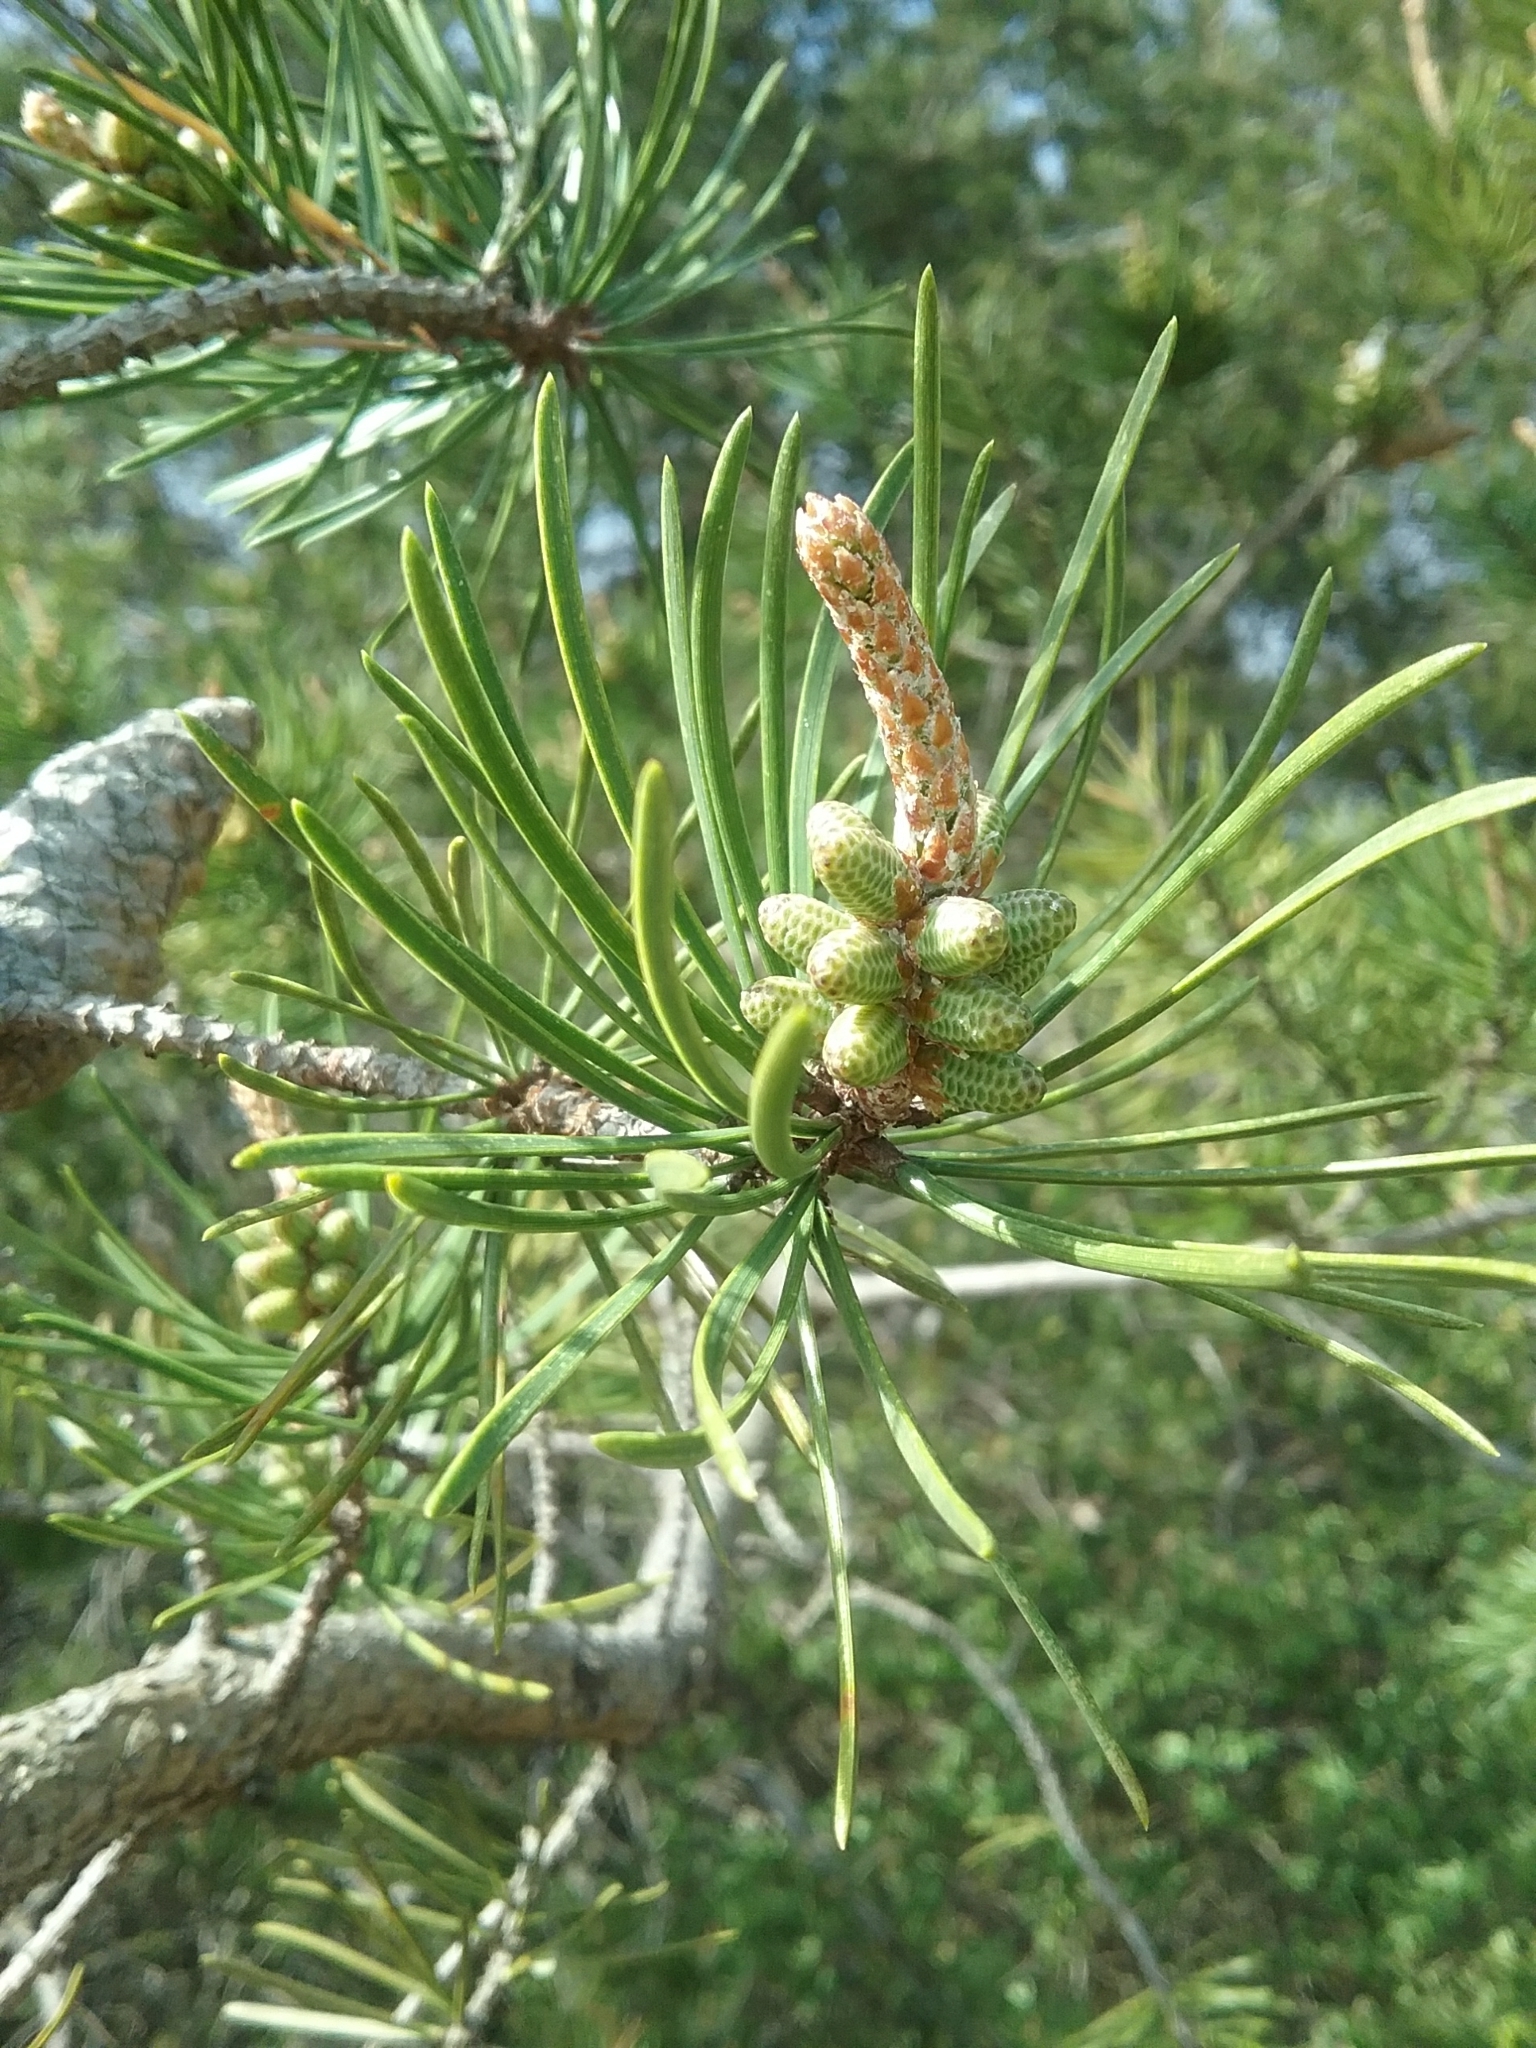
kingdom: Plantae
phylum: Tracheophyta
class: Pinopsida
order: Pinales
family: Pinaceae
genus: Pinus
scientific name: Pinus banksiana
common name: Jack pine
